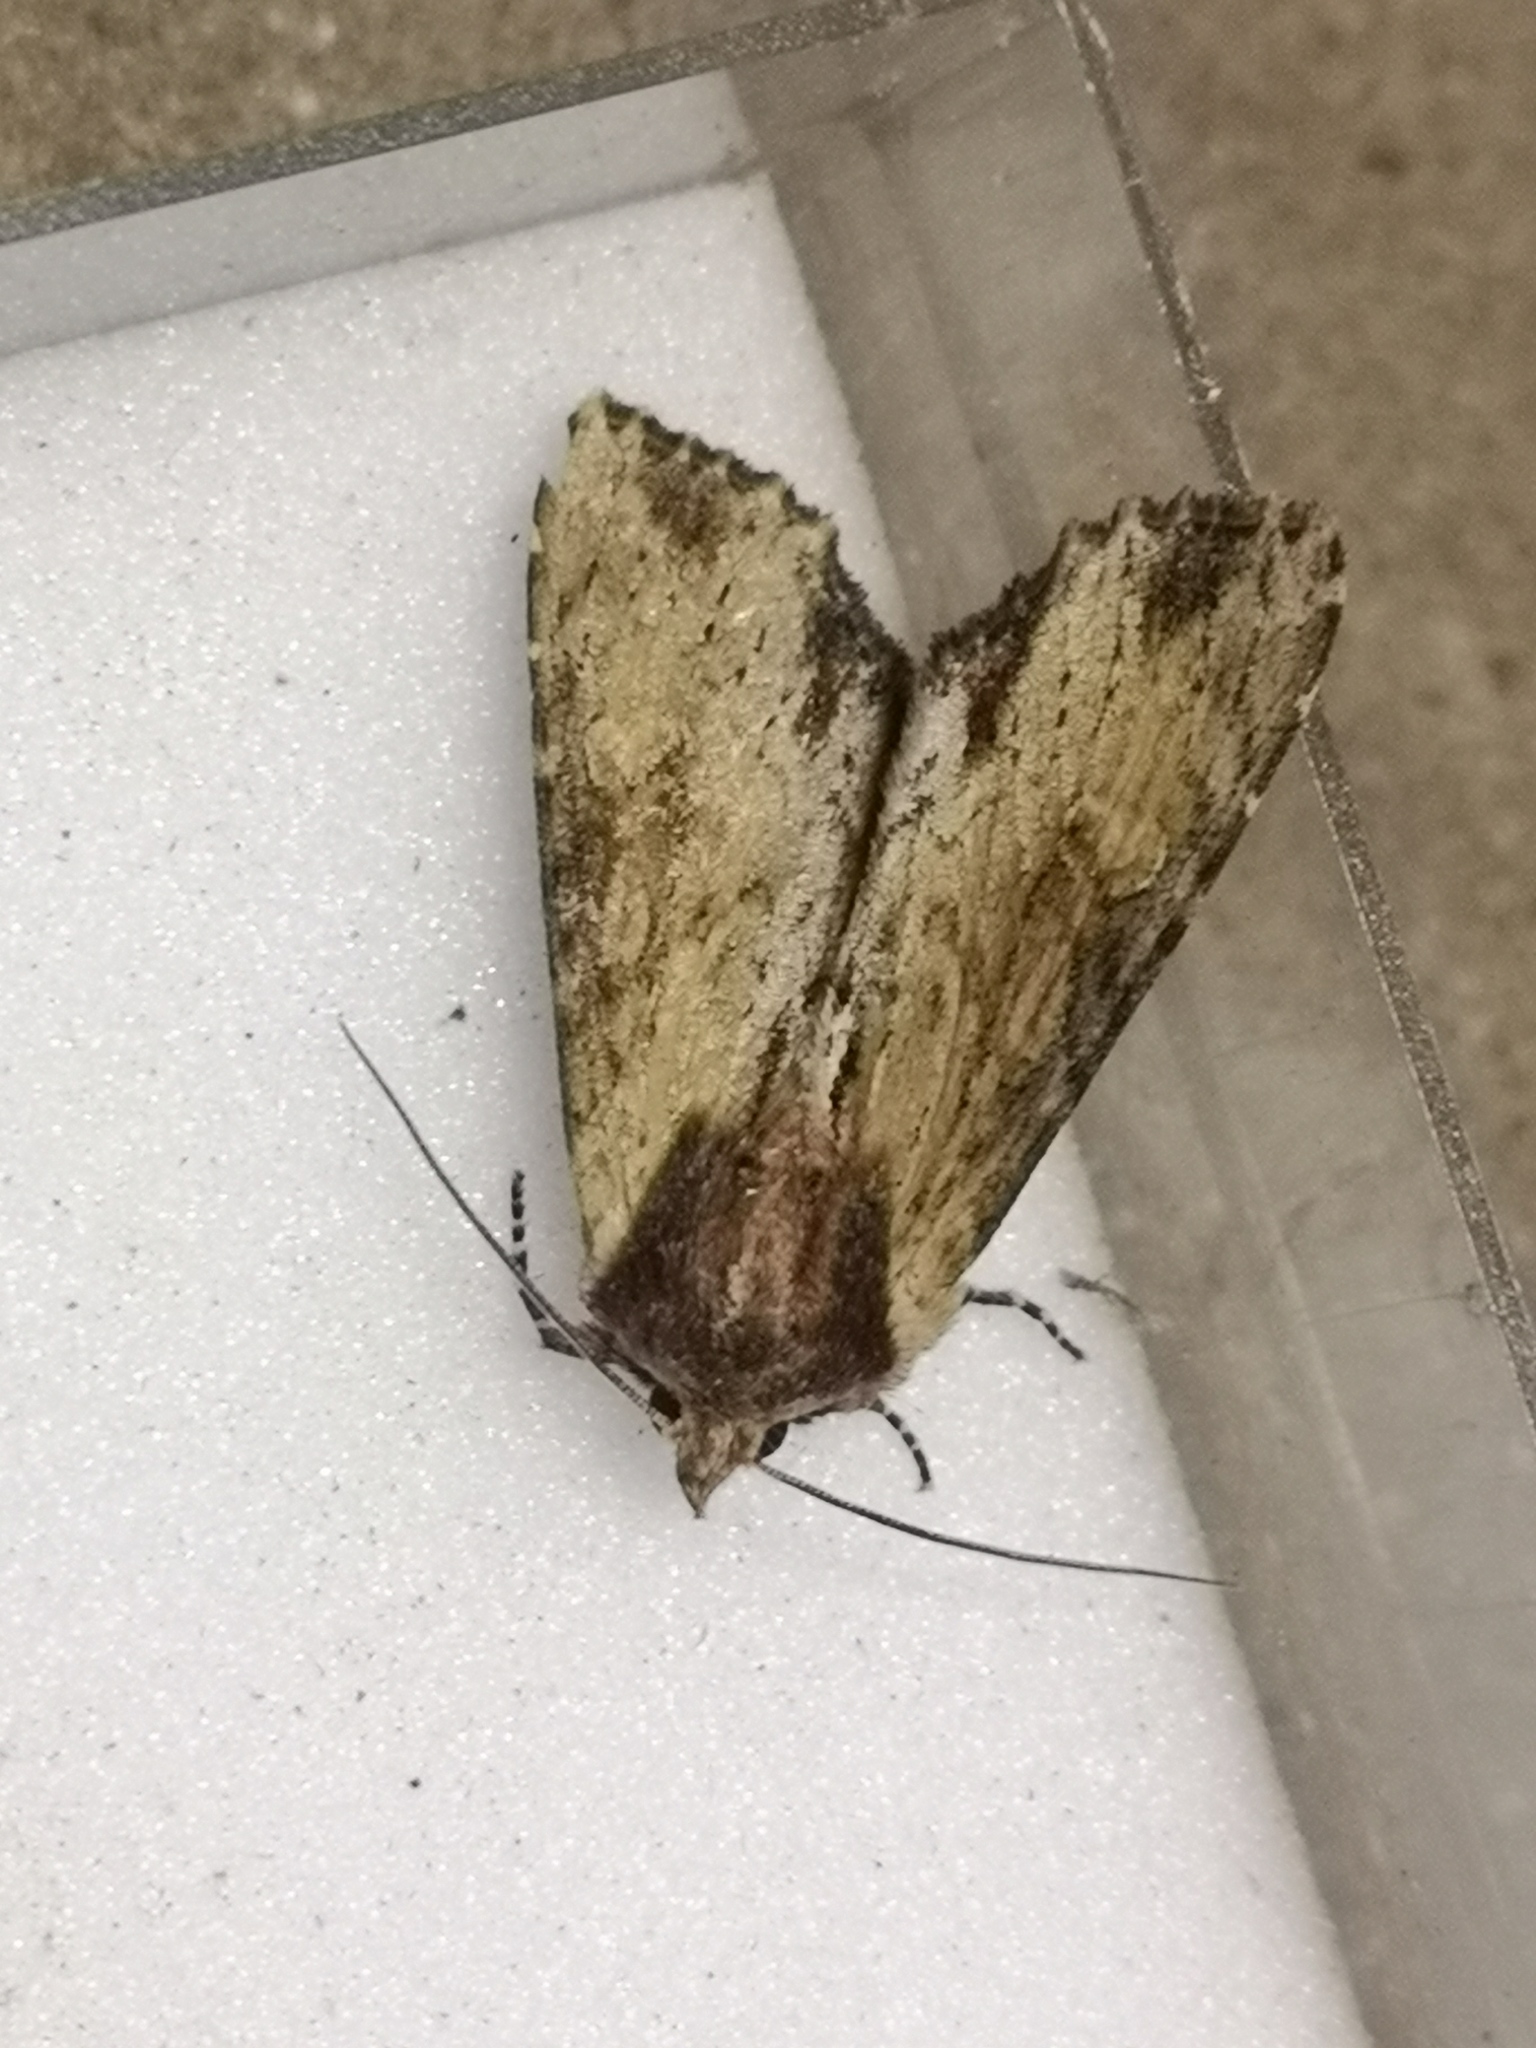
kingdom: Animalia
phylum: Arthropoda
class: Insecta
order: Lepidoptera
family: Noctuidae
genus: Apamea
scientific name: Apamea crenata
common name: Clouded-bordered brindle
